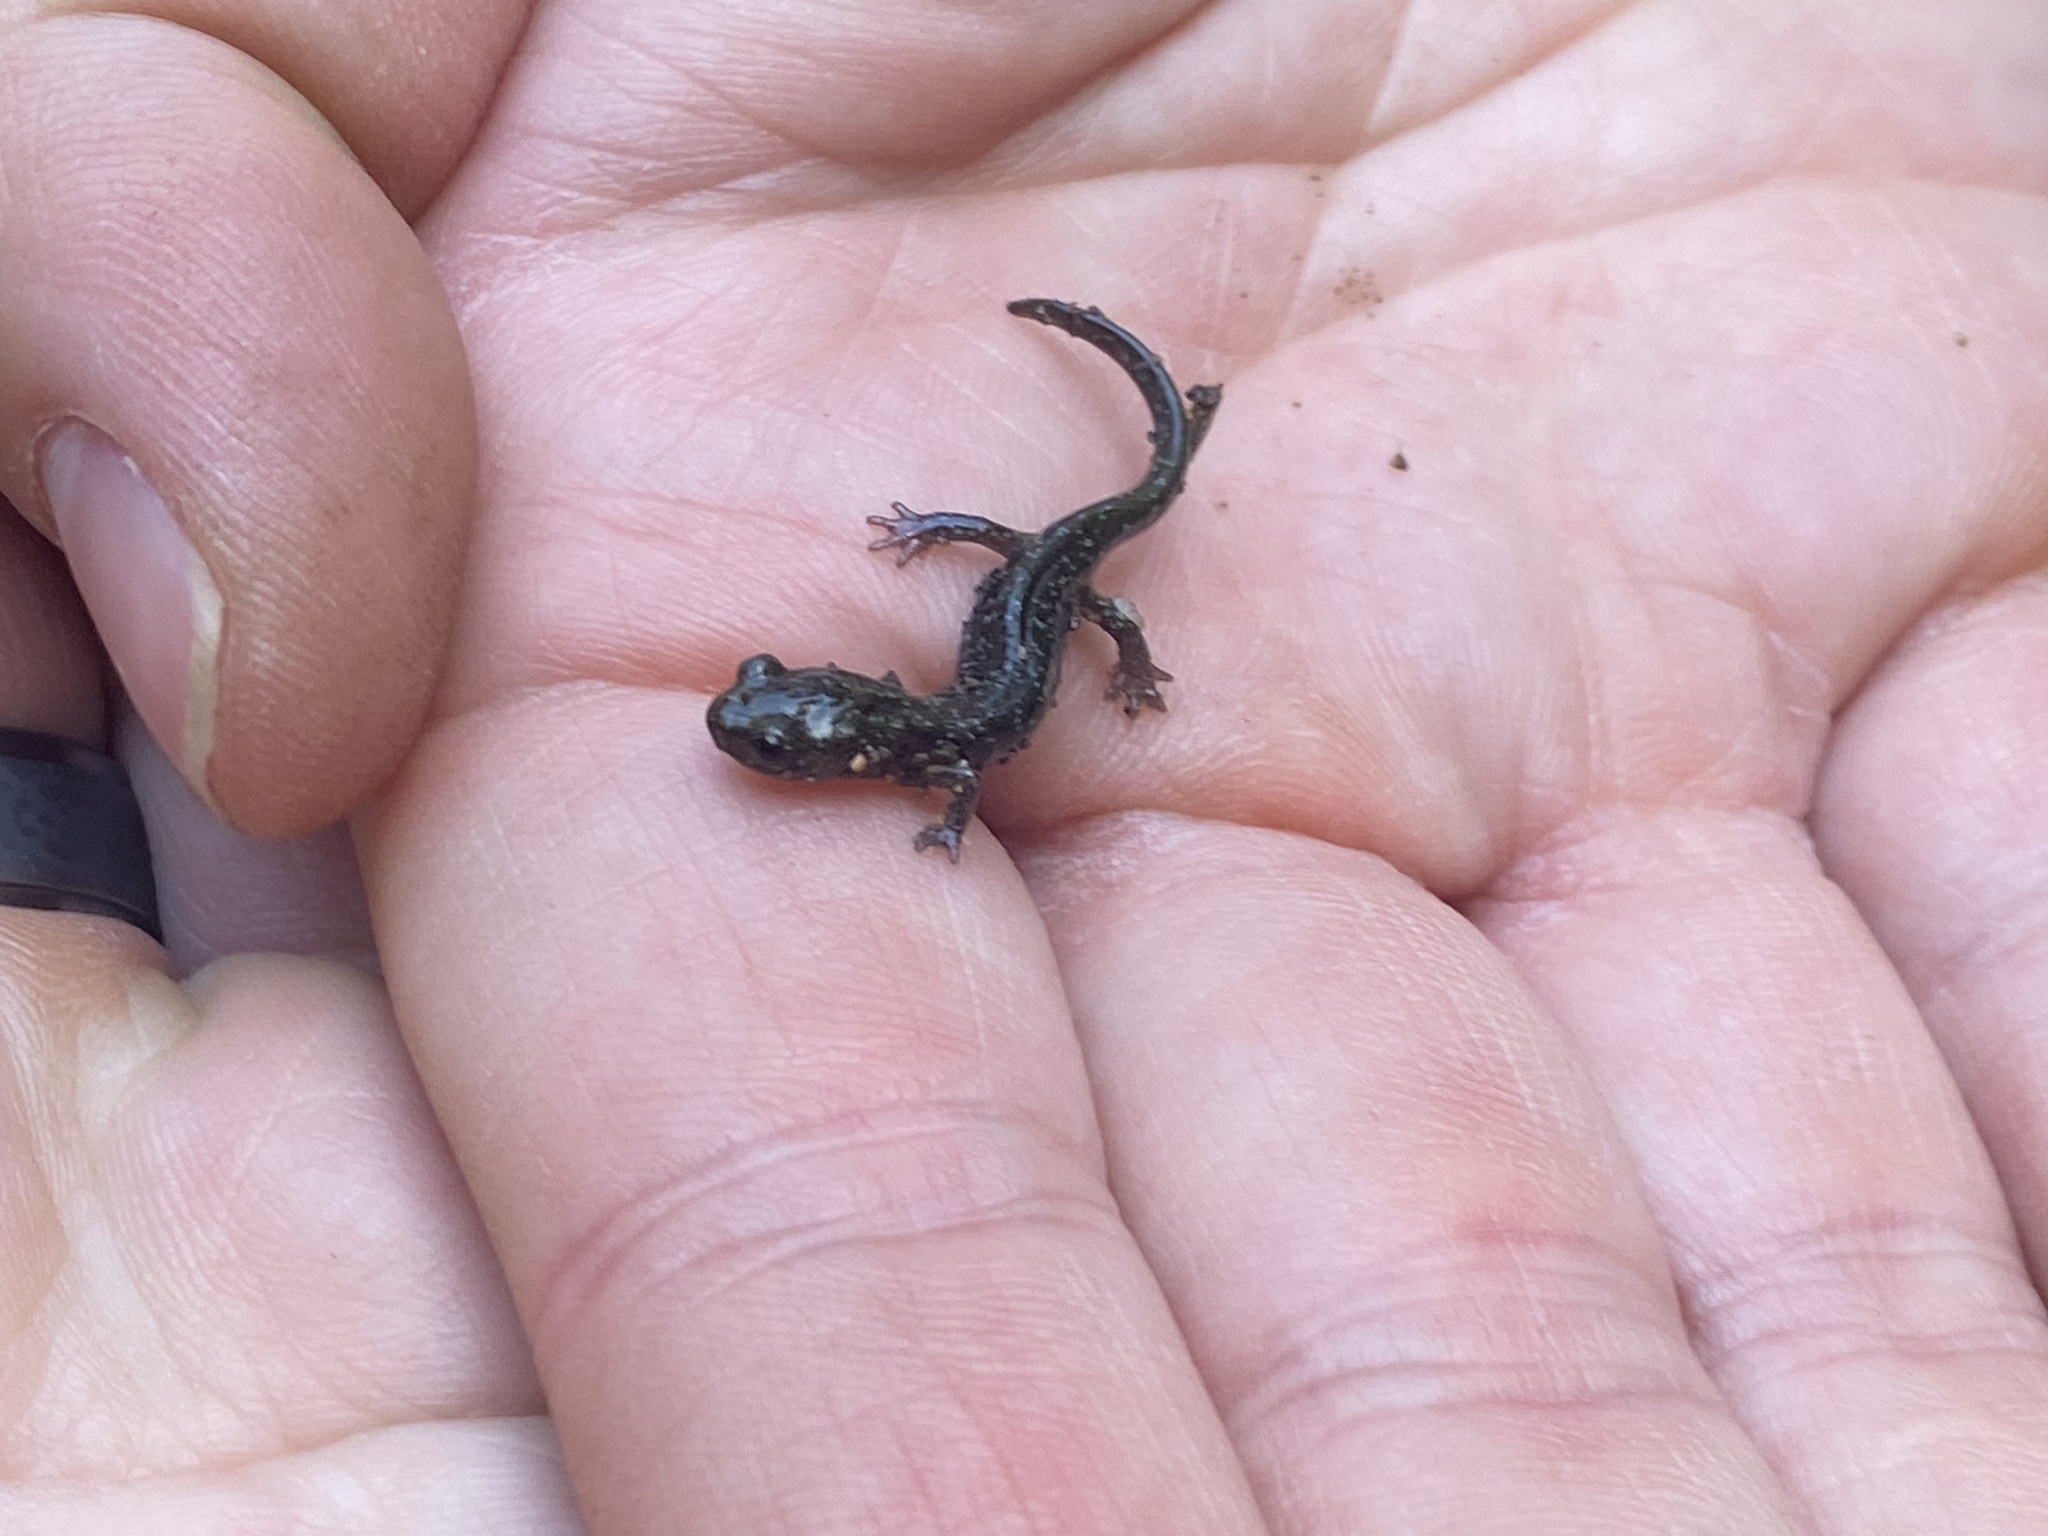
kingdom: Animalia
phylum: Chordata
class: Amphibia
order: Caudata
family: Plethodontidae
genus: Aneides
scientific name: Aneides niger
